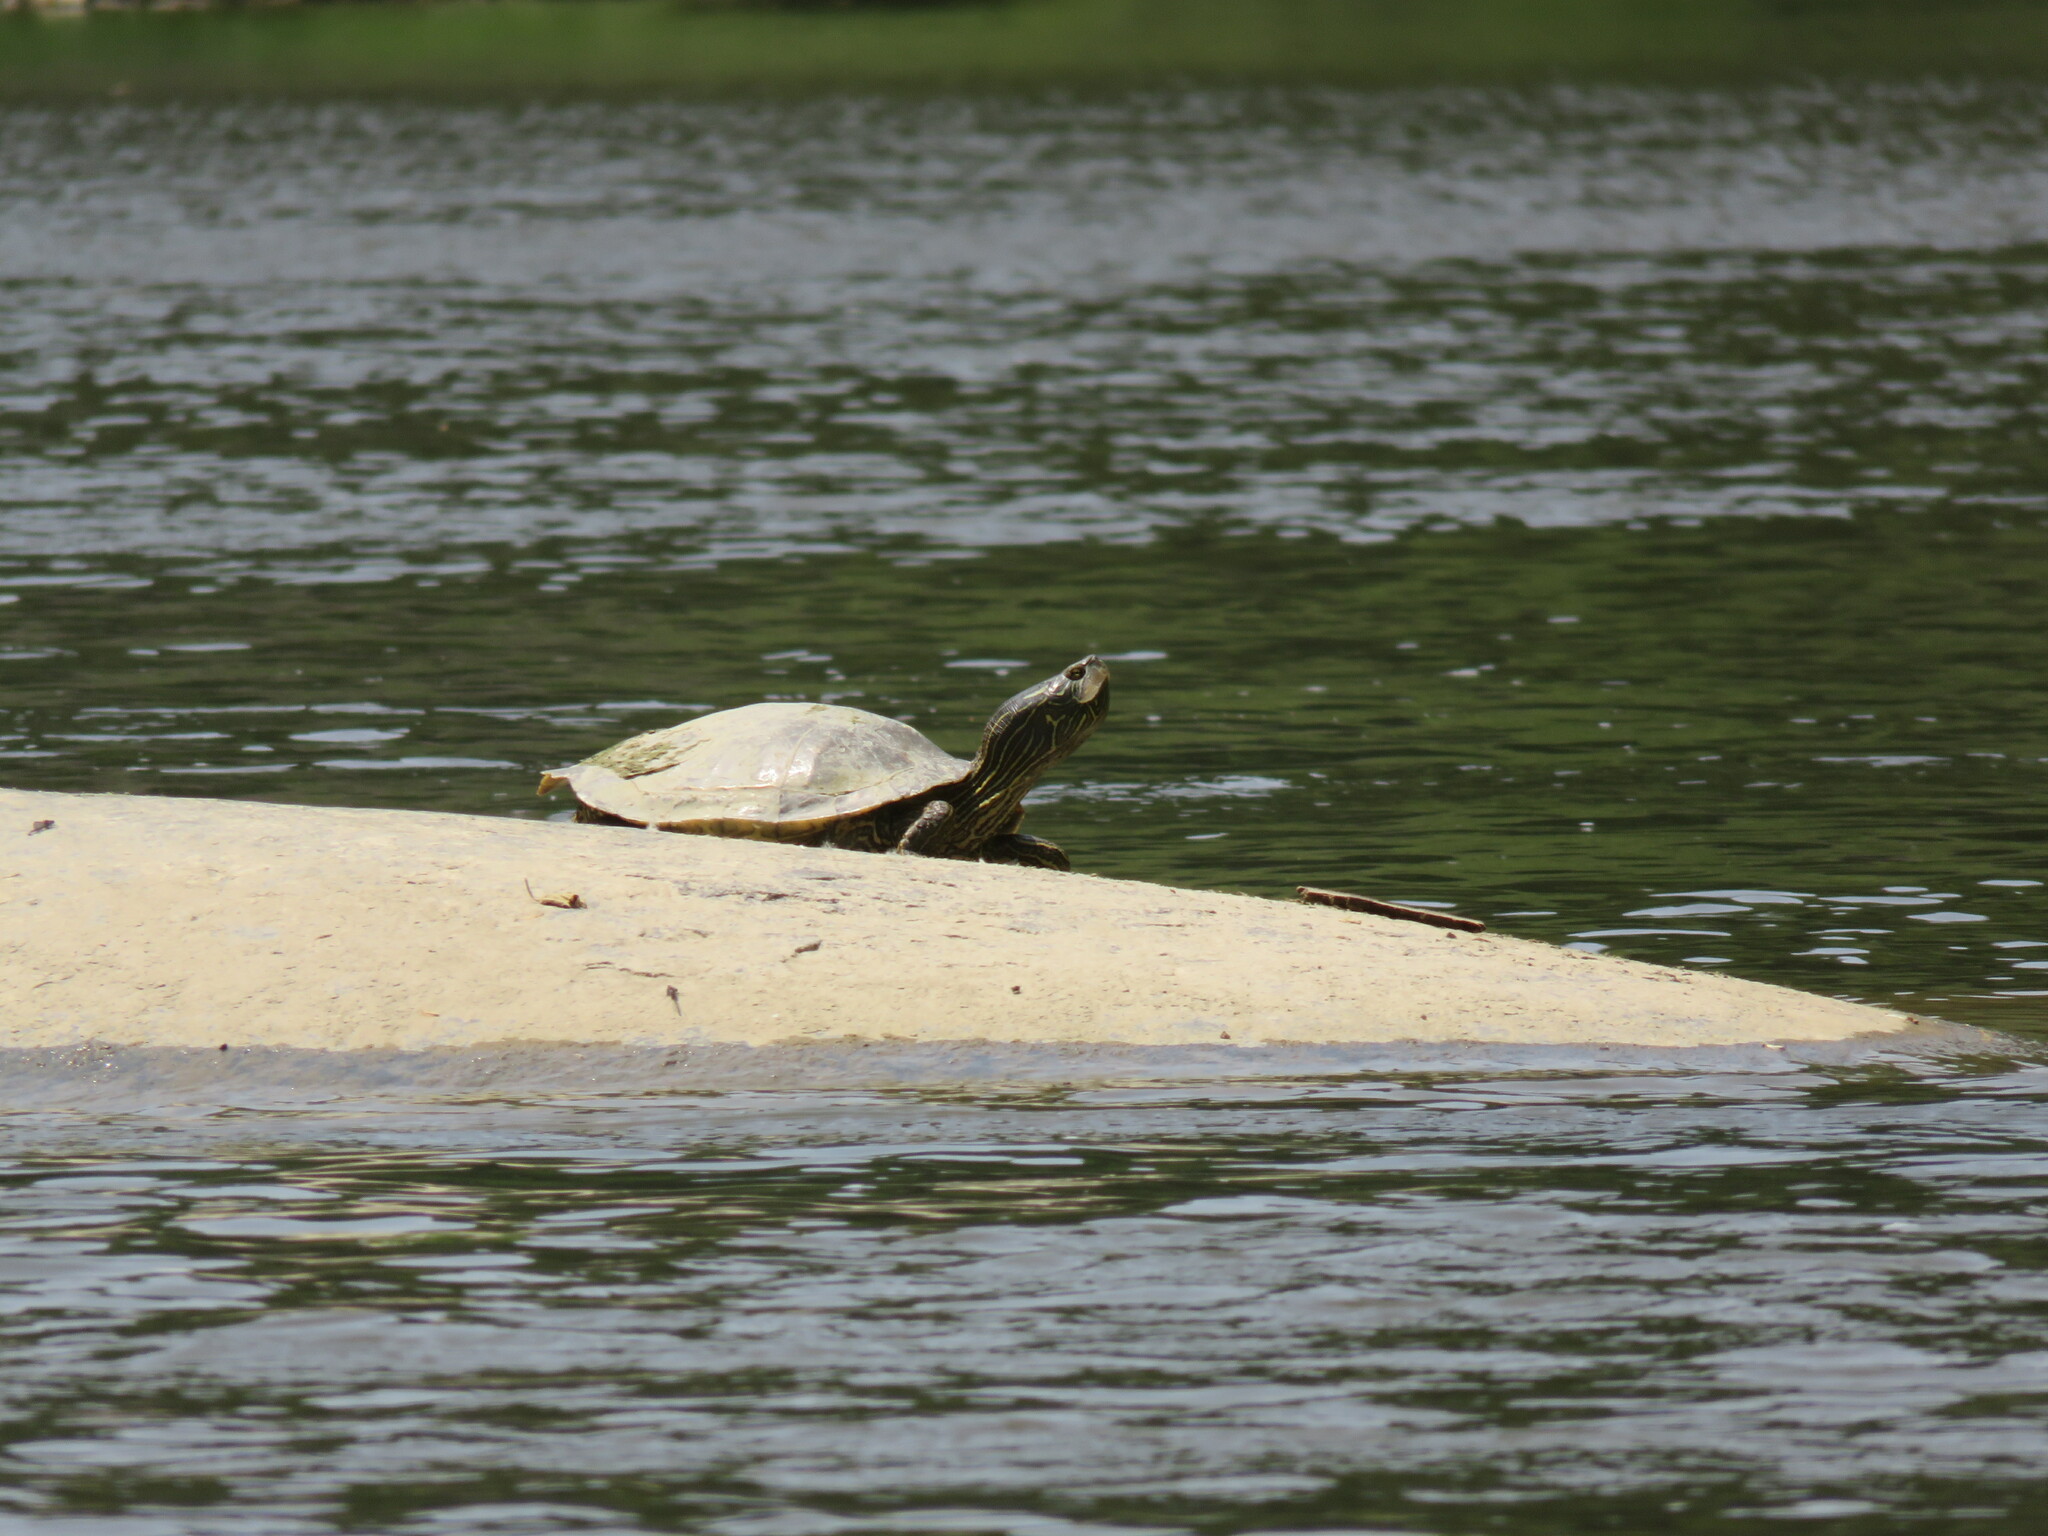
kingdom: Animalia
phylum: Chordata
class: Testudines
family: Emydidae
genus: Graptemys
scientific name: Graptemys geographica
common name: Common map turtle
